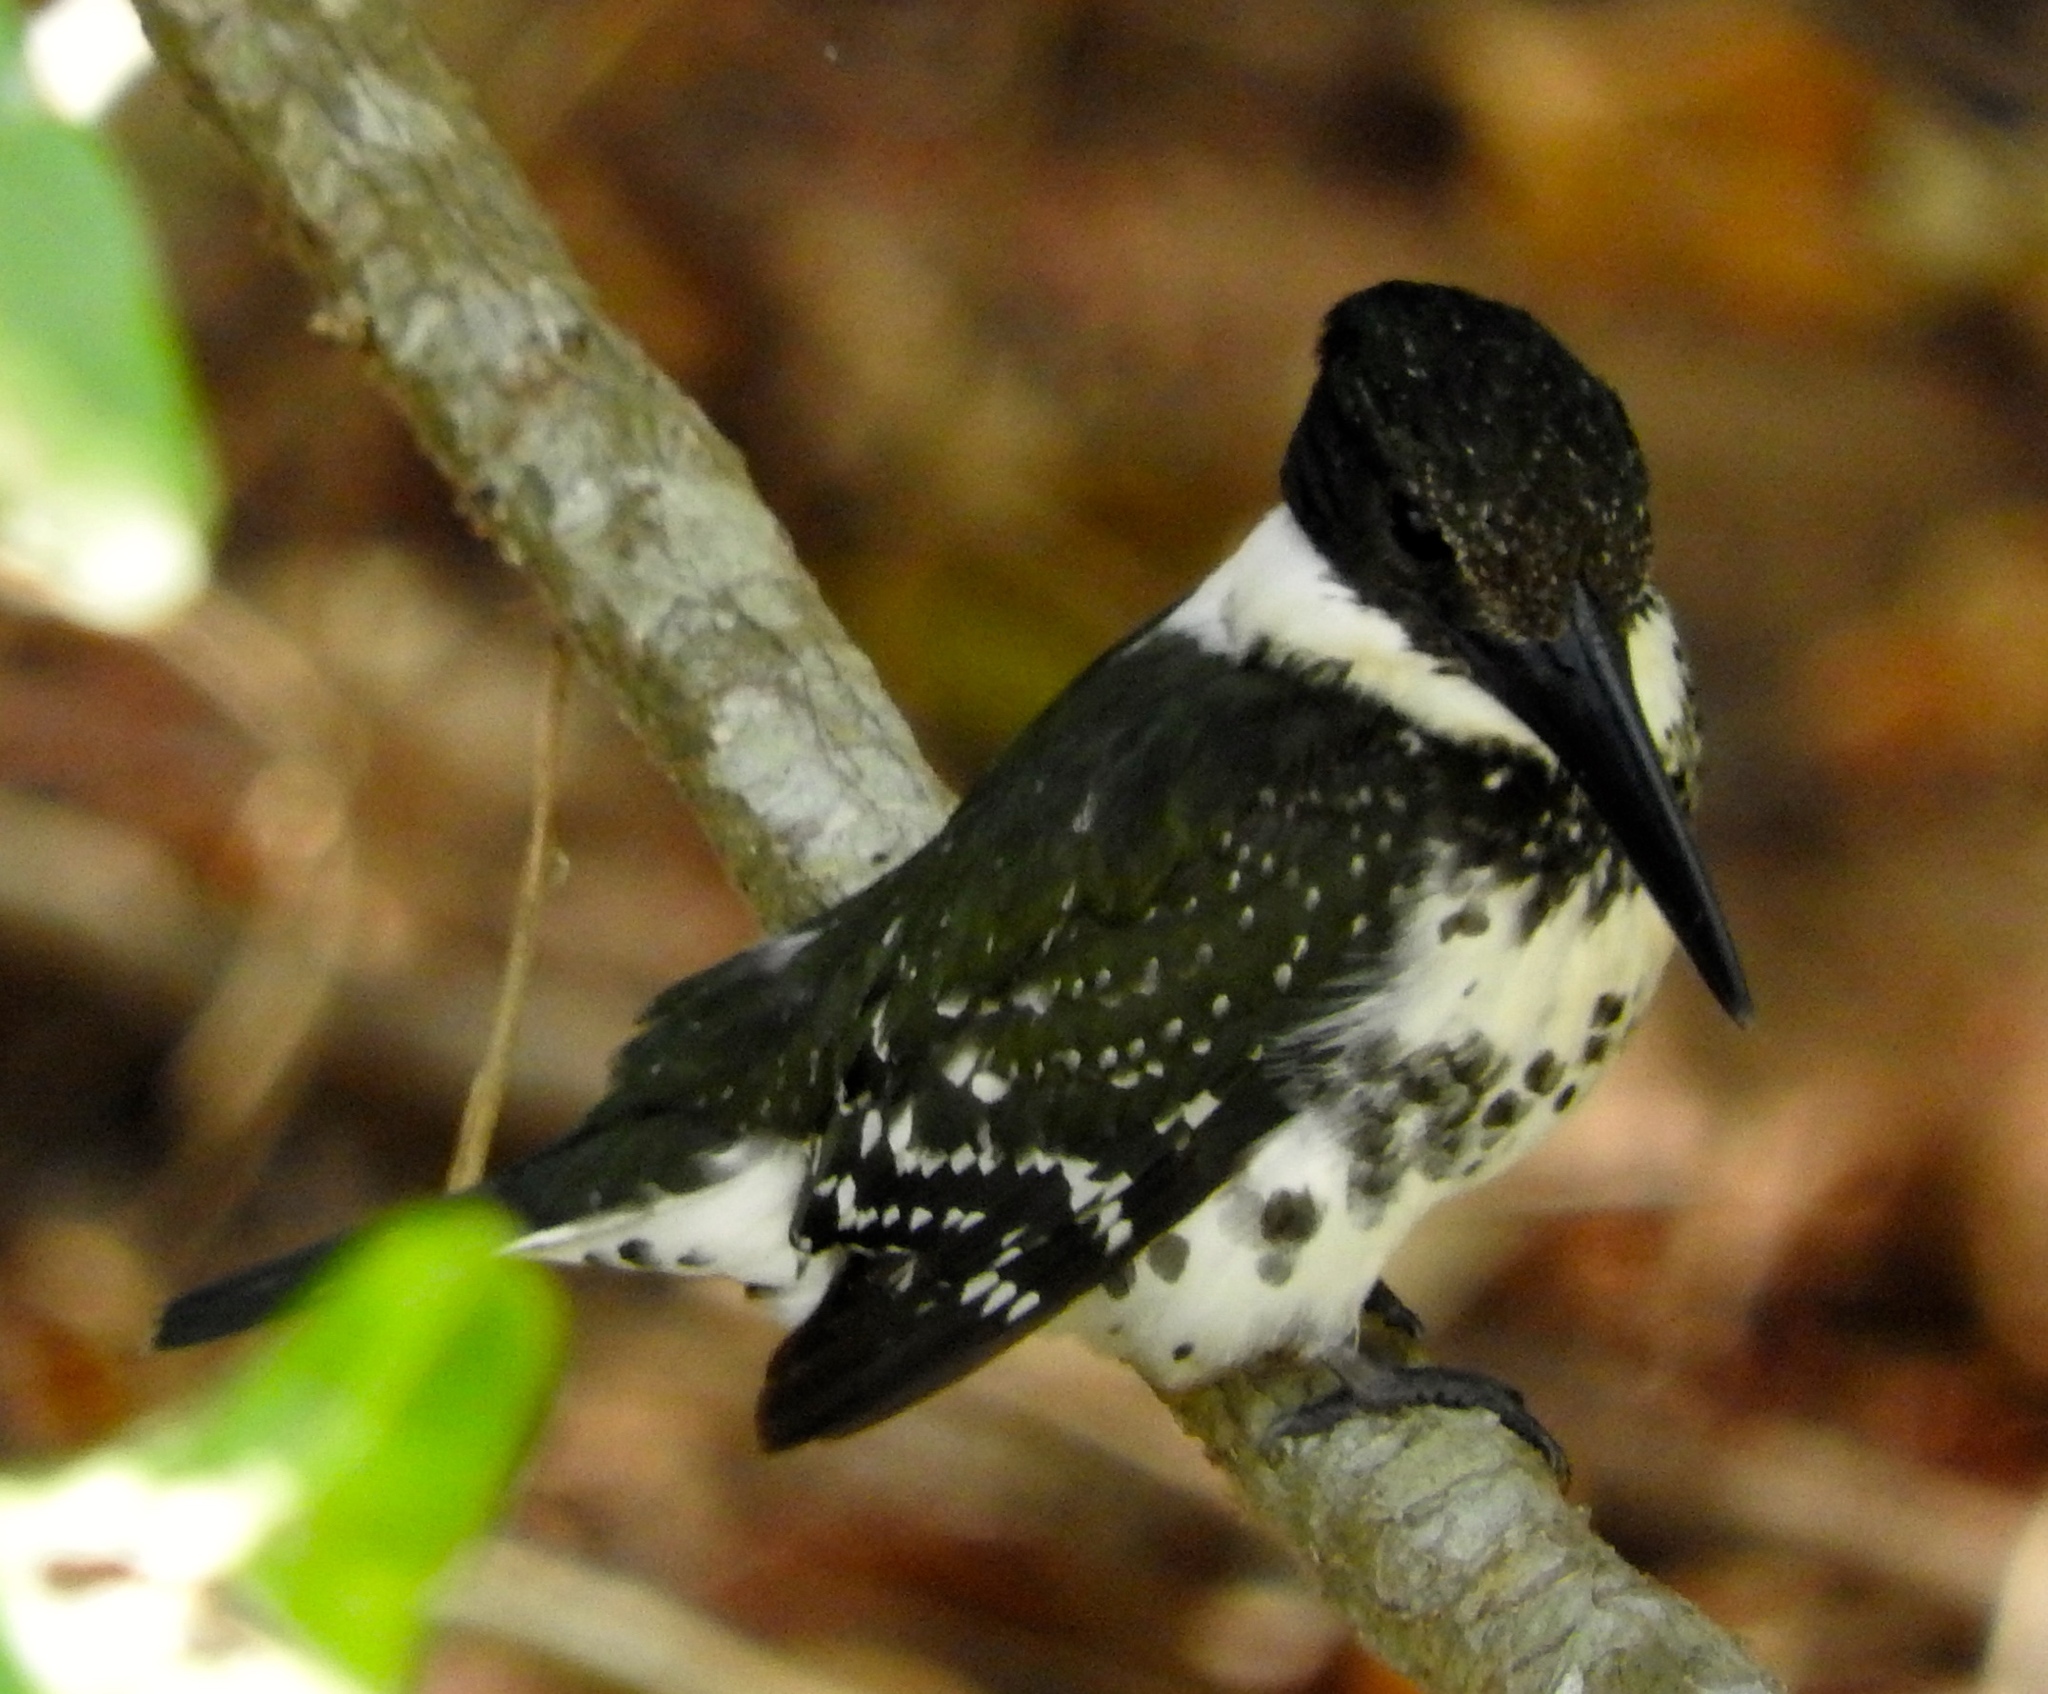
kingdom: Animalia
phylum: Chordata
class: Aves
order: Coraciiformes
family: Alcedinidae
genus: Chloroceryle
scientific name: Chloroceryle americana
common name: Green kingfisher
